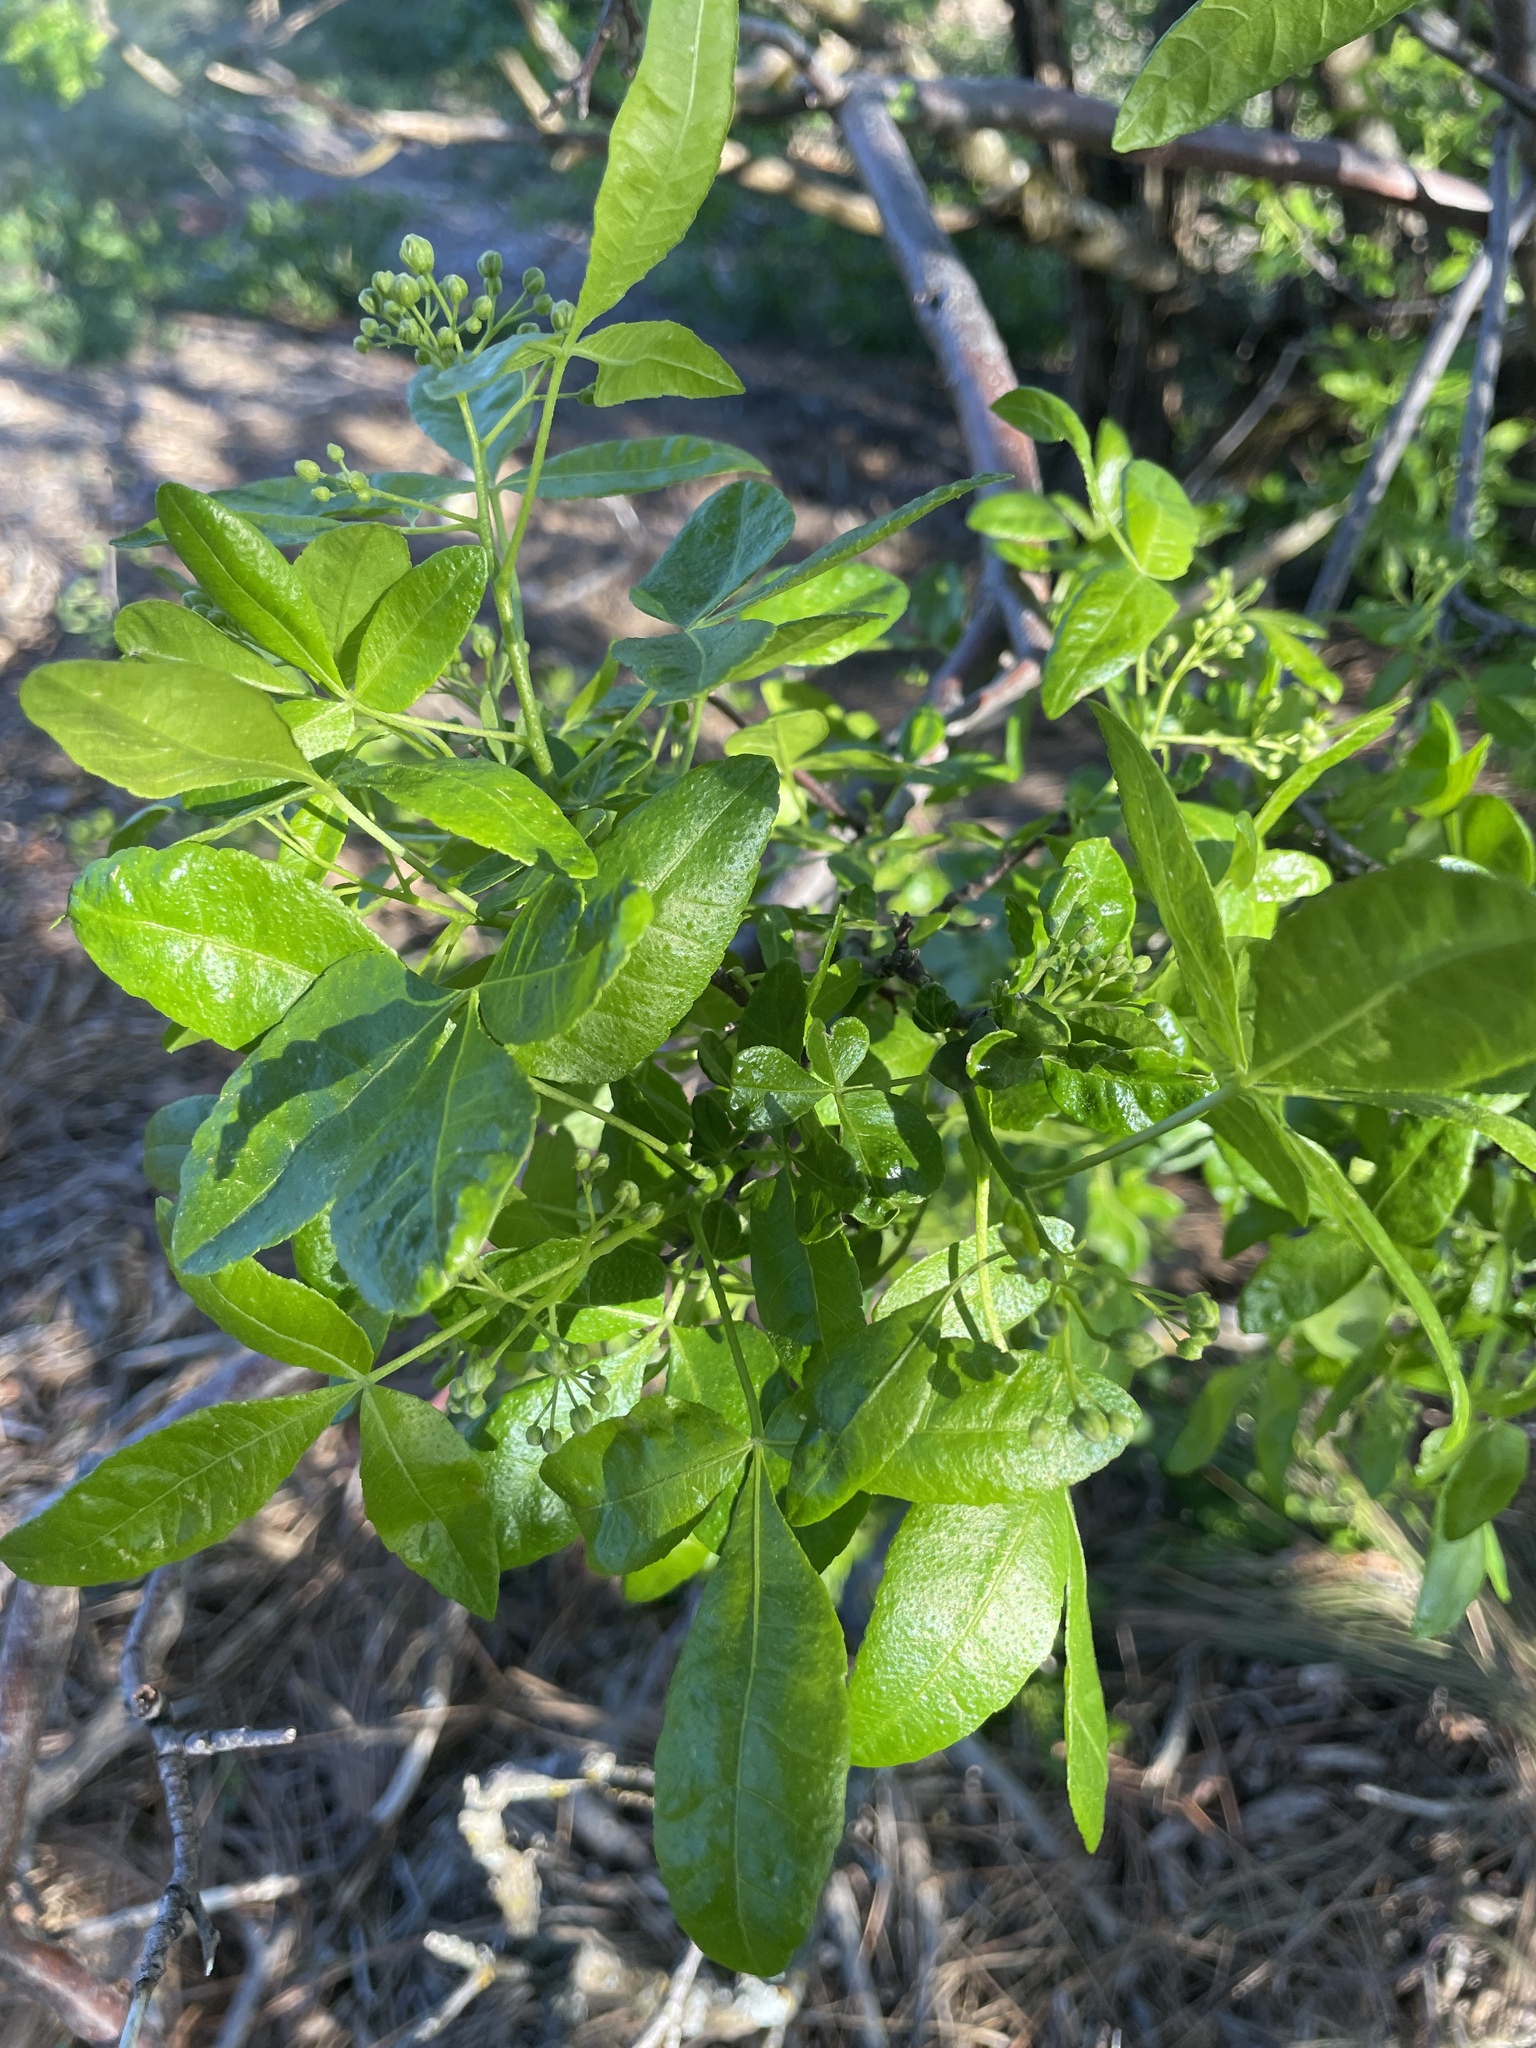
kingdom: Plantae
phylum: Tracheophyta
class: Magnoliopsida
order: Sapindales
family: Rutaceae
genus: Ptelea
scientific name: Ptelea crenulata
